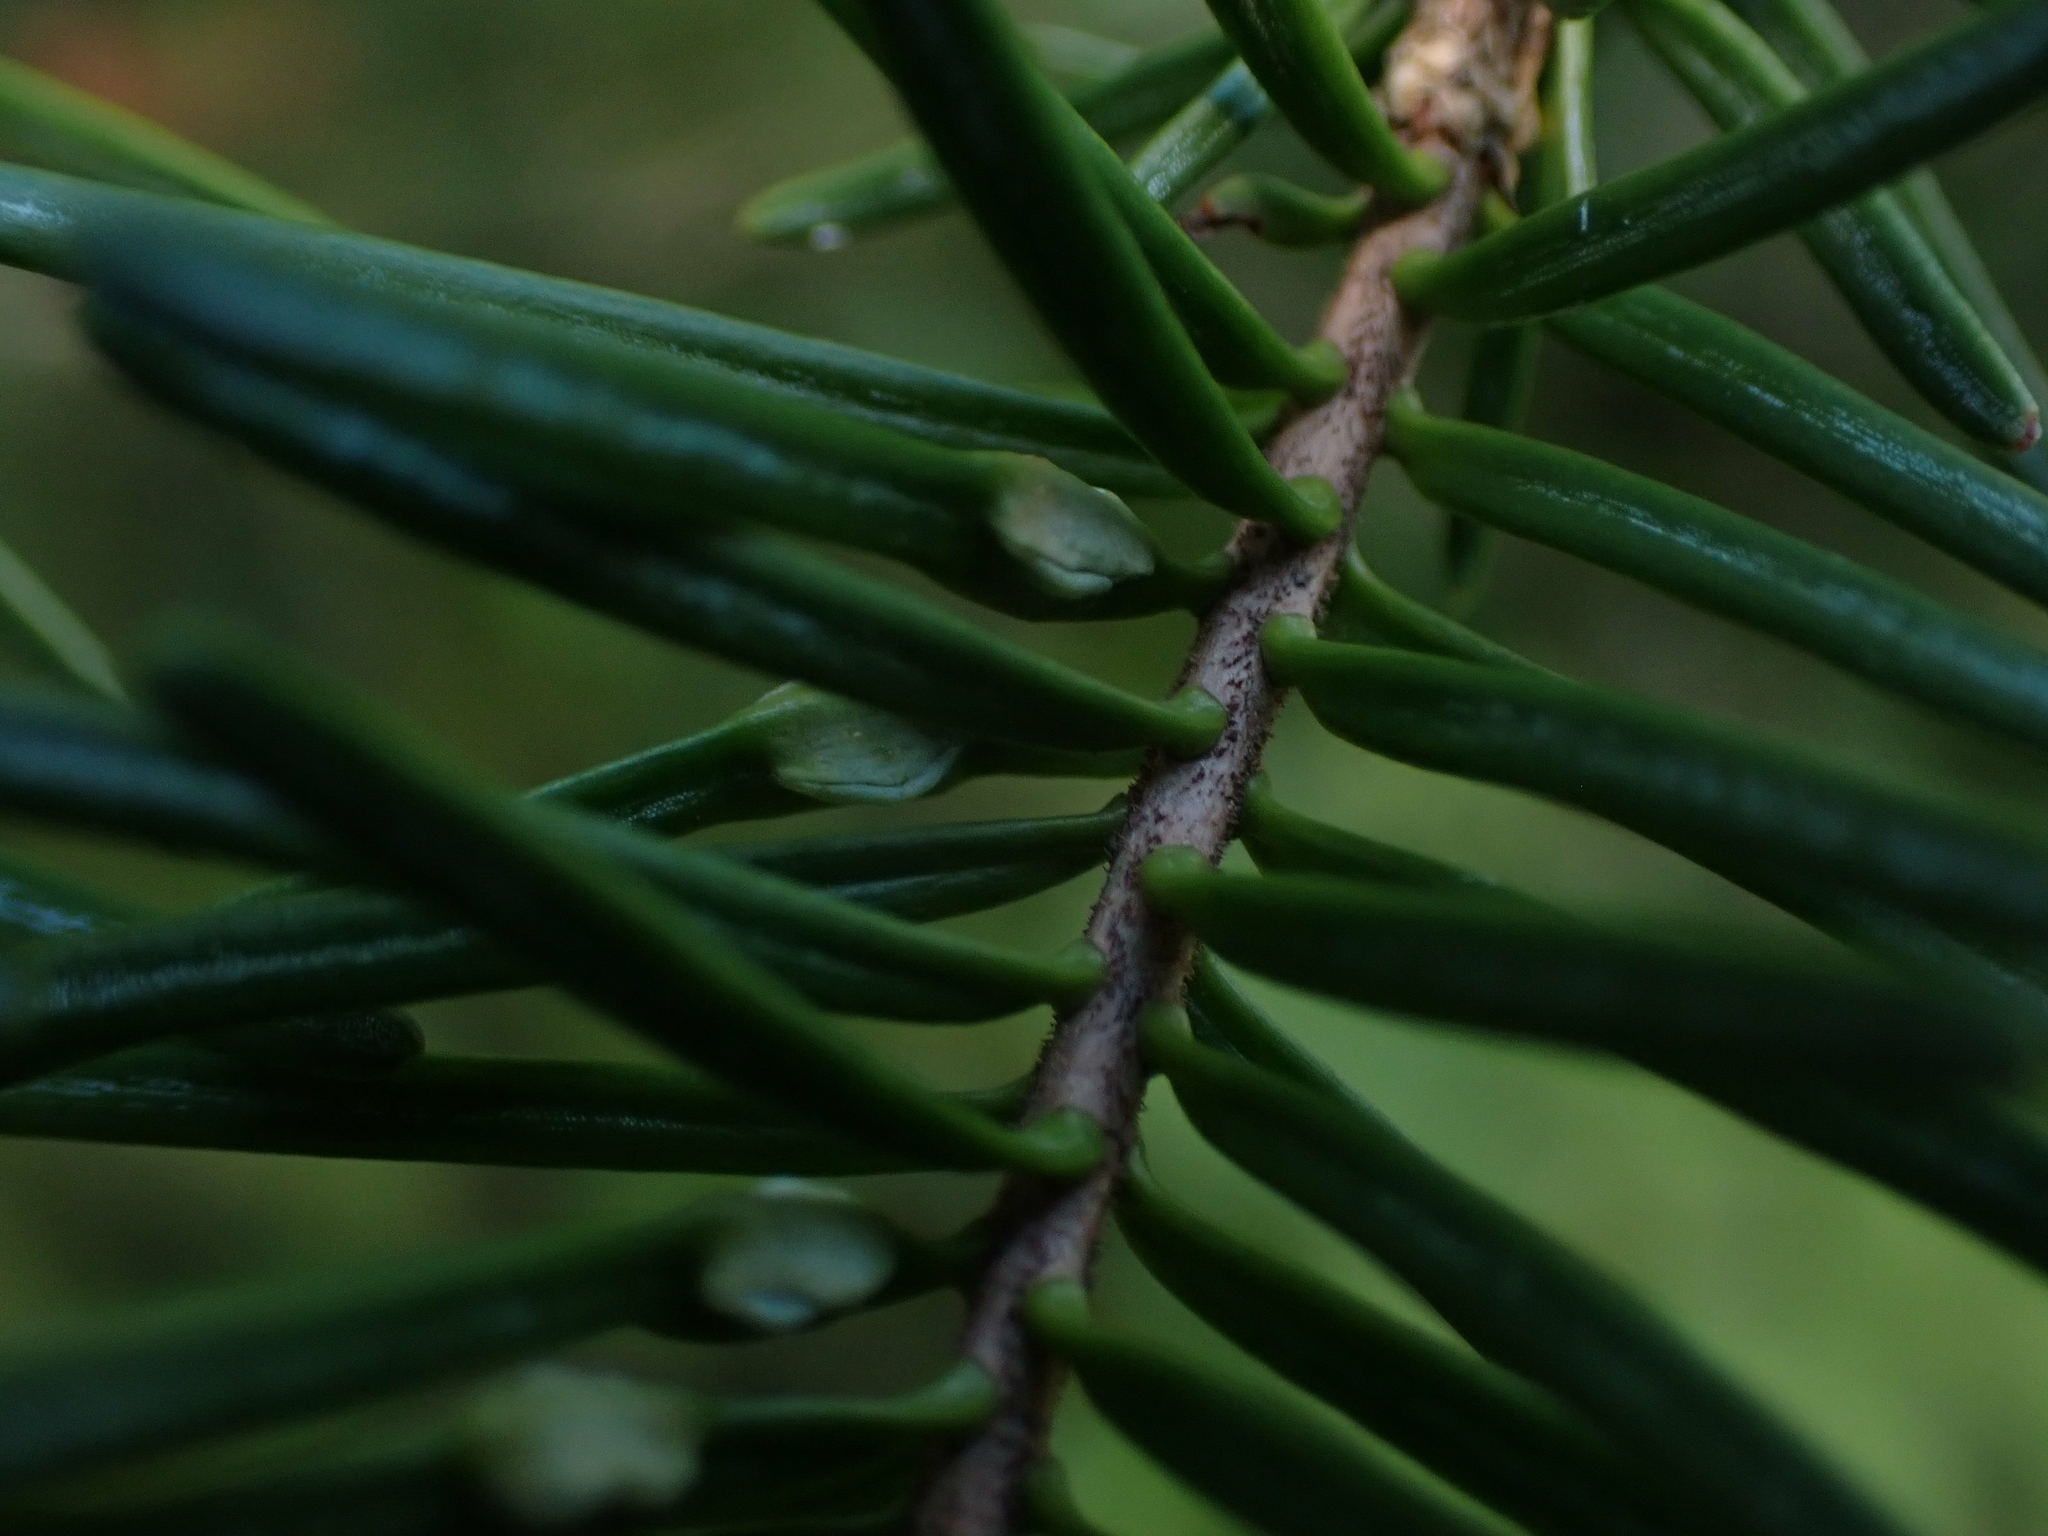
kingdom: Animalia
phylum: Arthropoda
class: Insecta
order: Diptera
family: Cecidomyiidae
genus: Paradiplosis
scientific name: Paradiplosis tumifex
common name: Gall midge
